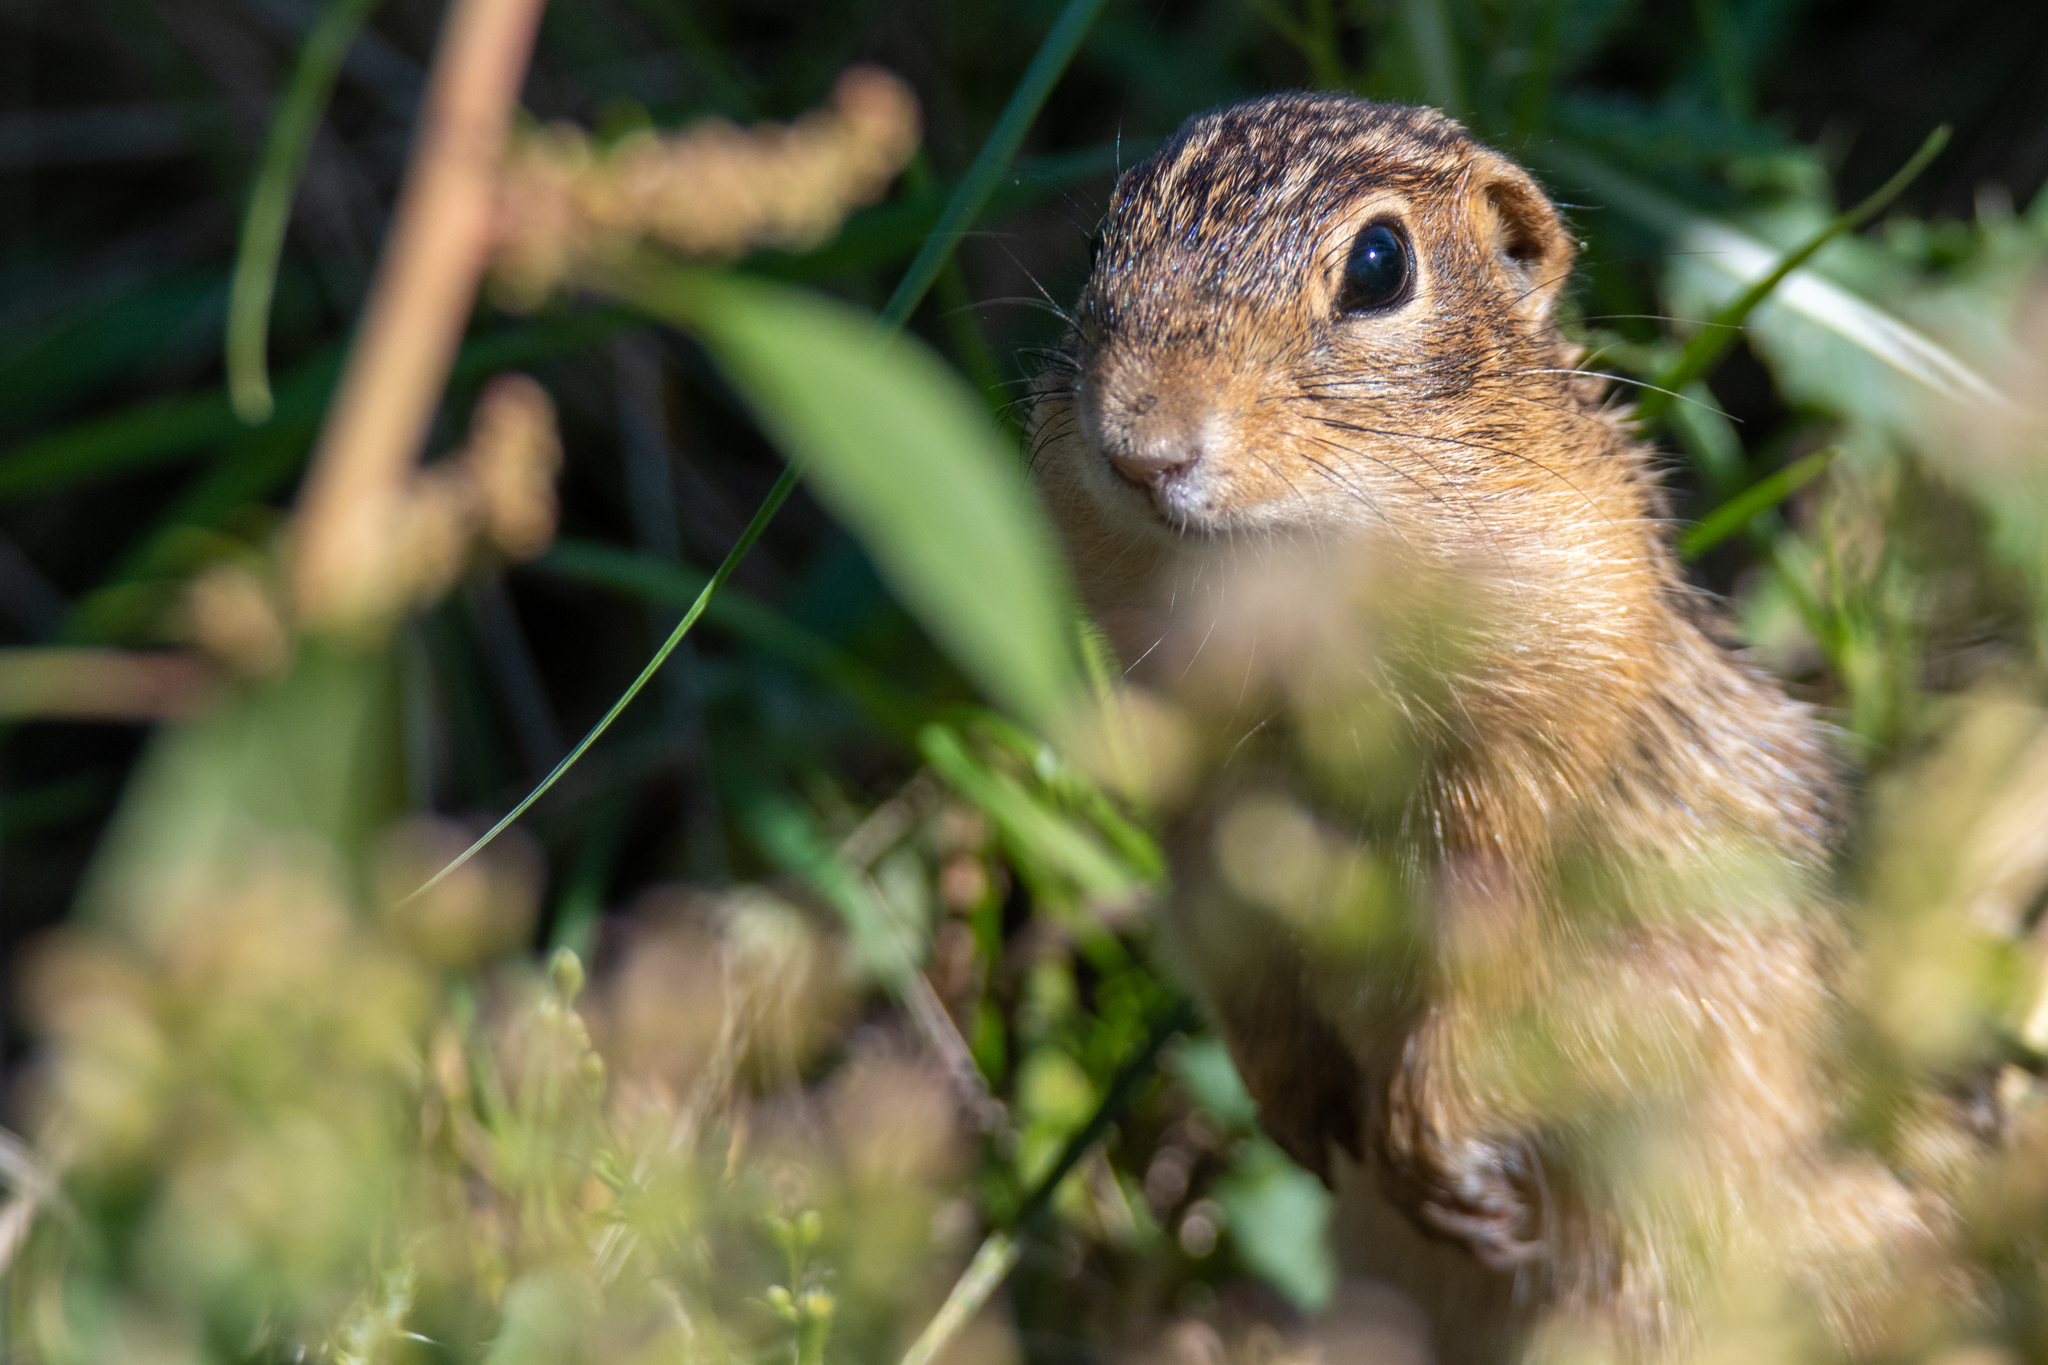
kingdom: Animalia
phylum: Chordata
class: Mammalia
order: Rodentia
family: Sciuridae
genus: Ictidomys
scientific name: Ictidomys tridecemlineatus
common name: Thirteen-lined ground squirrel
